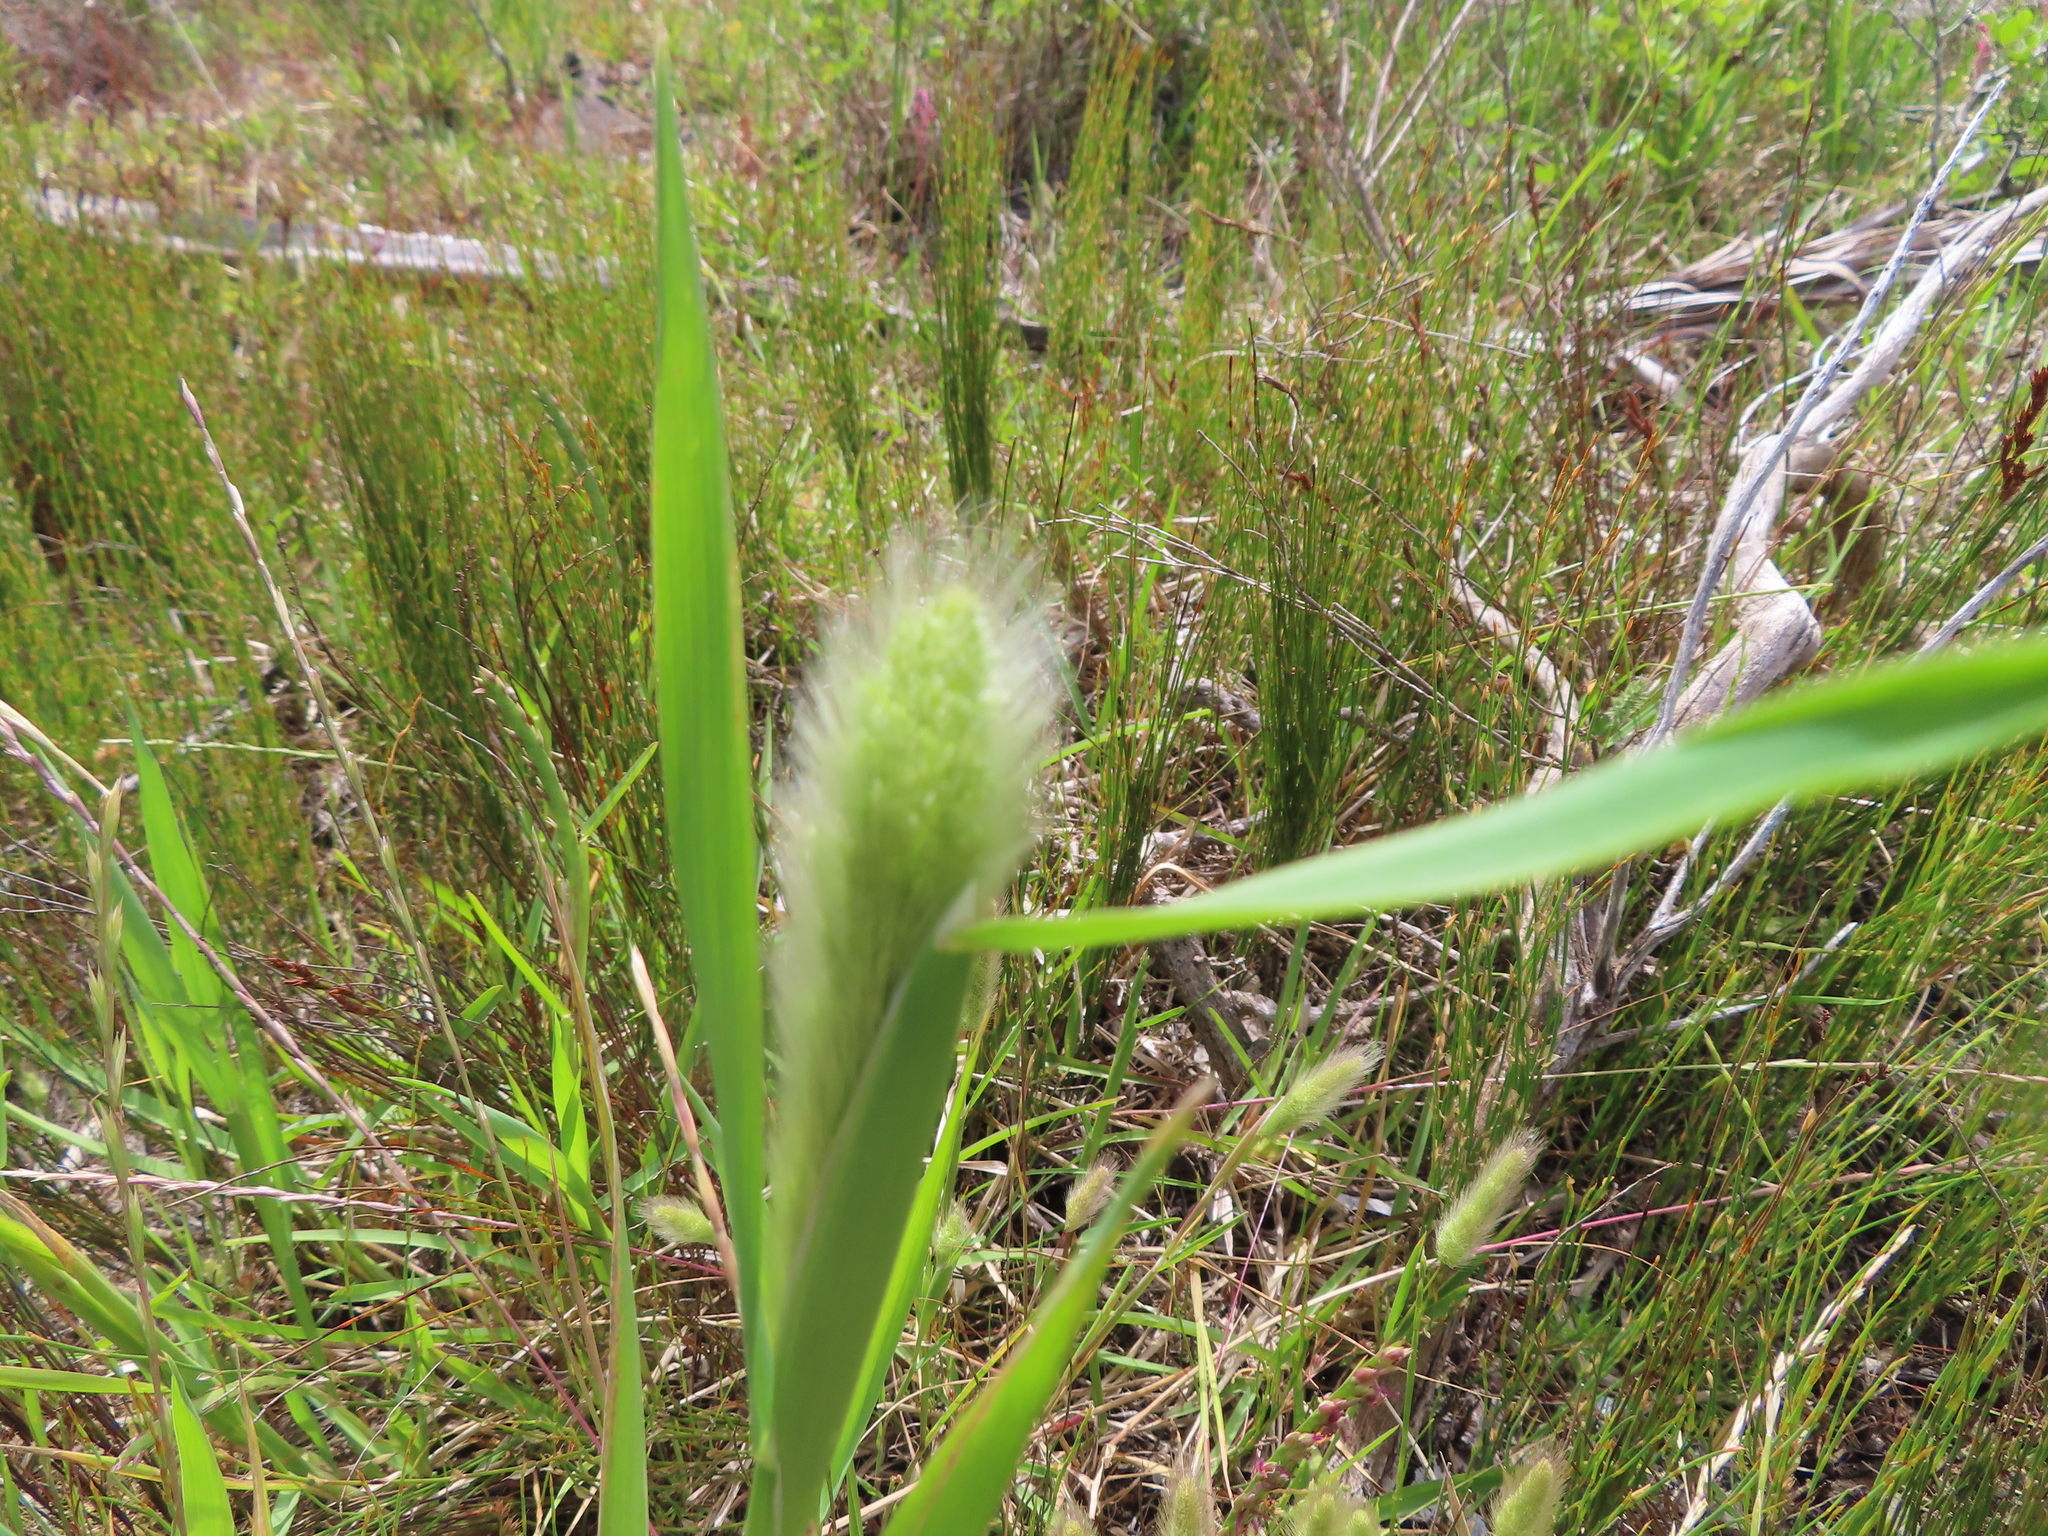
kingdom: Plantae
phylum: Tracheophyta
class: Liliopsida
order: Poales
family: Poaceae
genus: Polypogon
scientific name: Polypogon monspeliensis
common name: Annual rabbitsfoot grass
